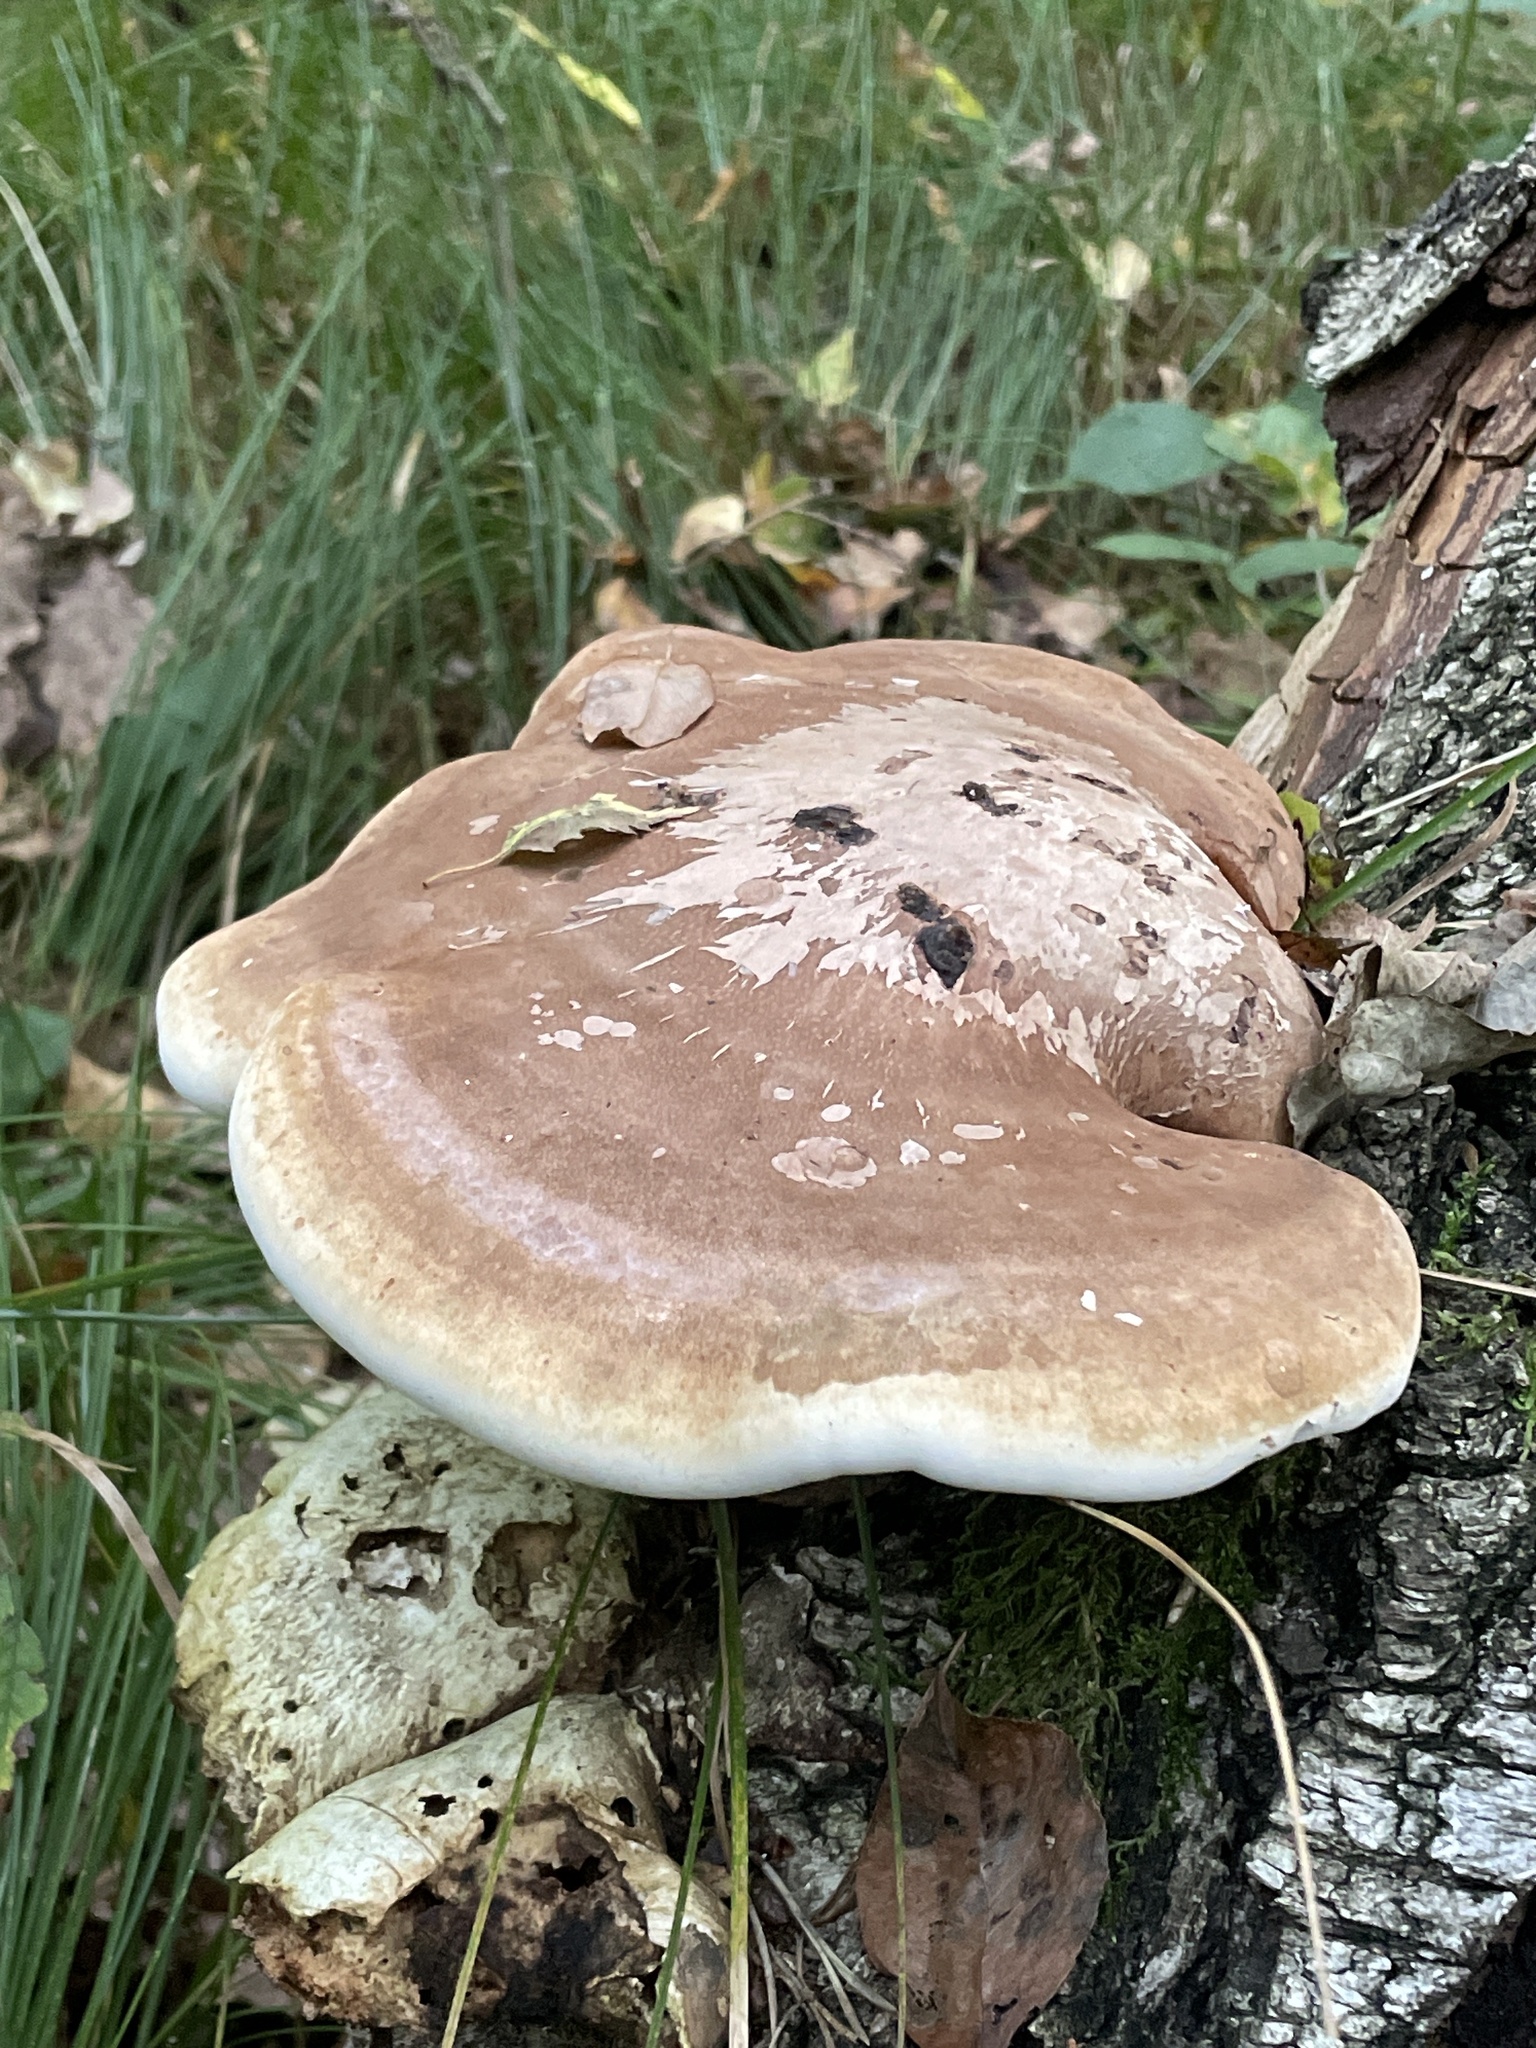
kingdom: Fungi
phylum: Basidiomycota
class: Agaricomycetes
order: Polyporales
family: Fomitopsidaceae
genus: Fomitopsis
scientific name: Fomitopsis betulina
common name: Birch polypore
